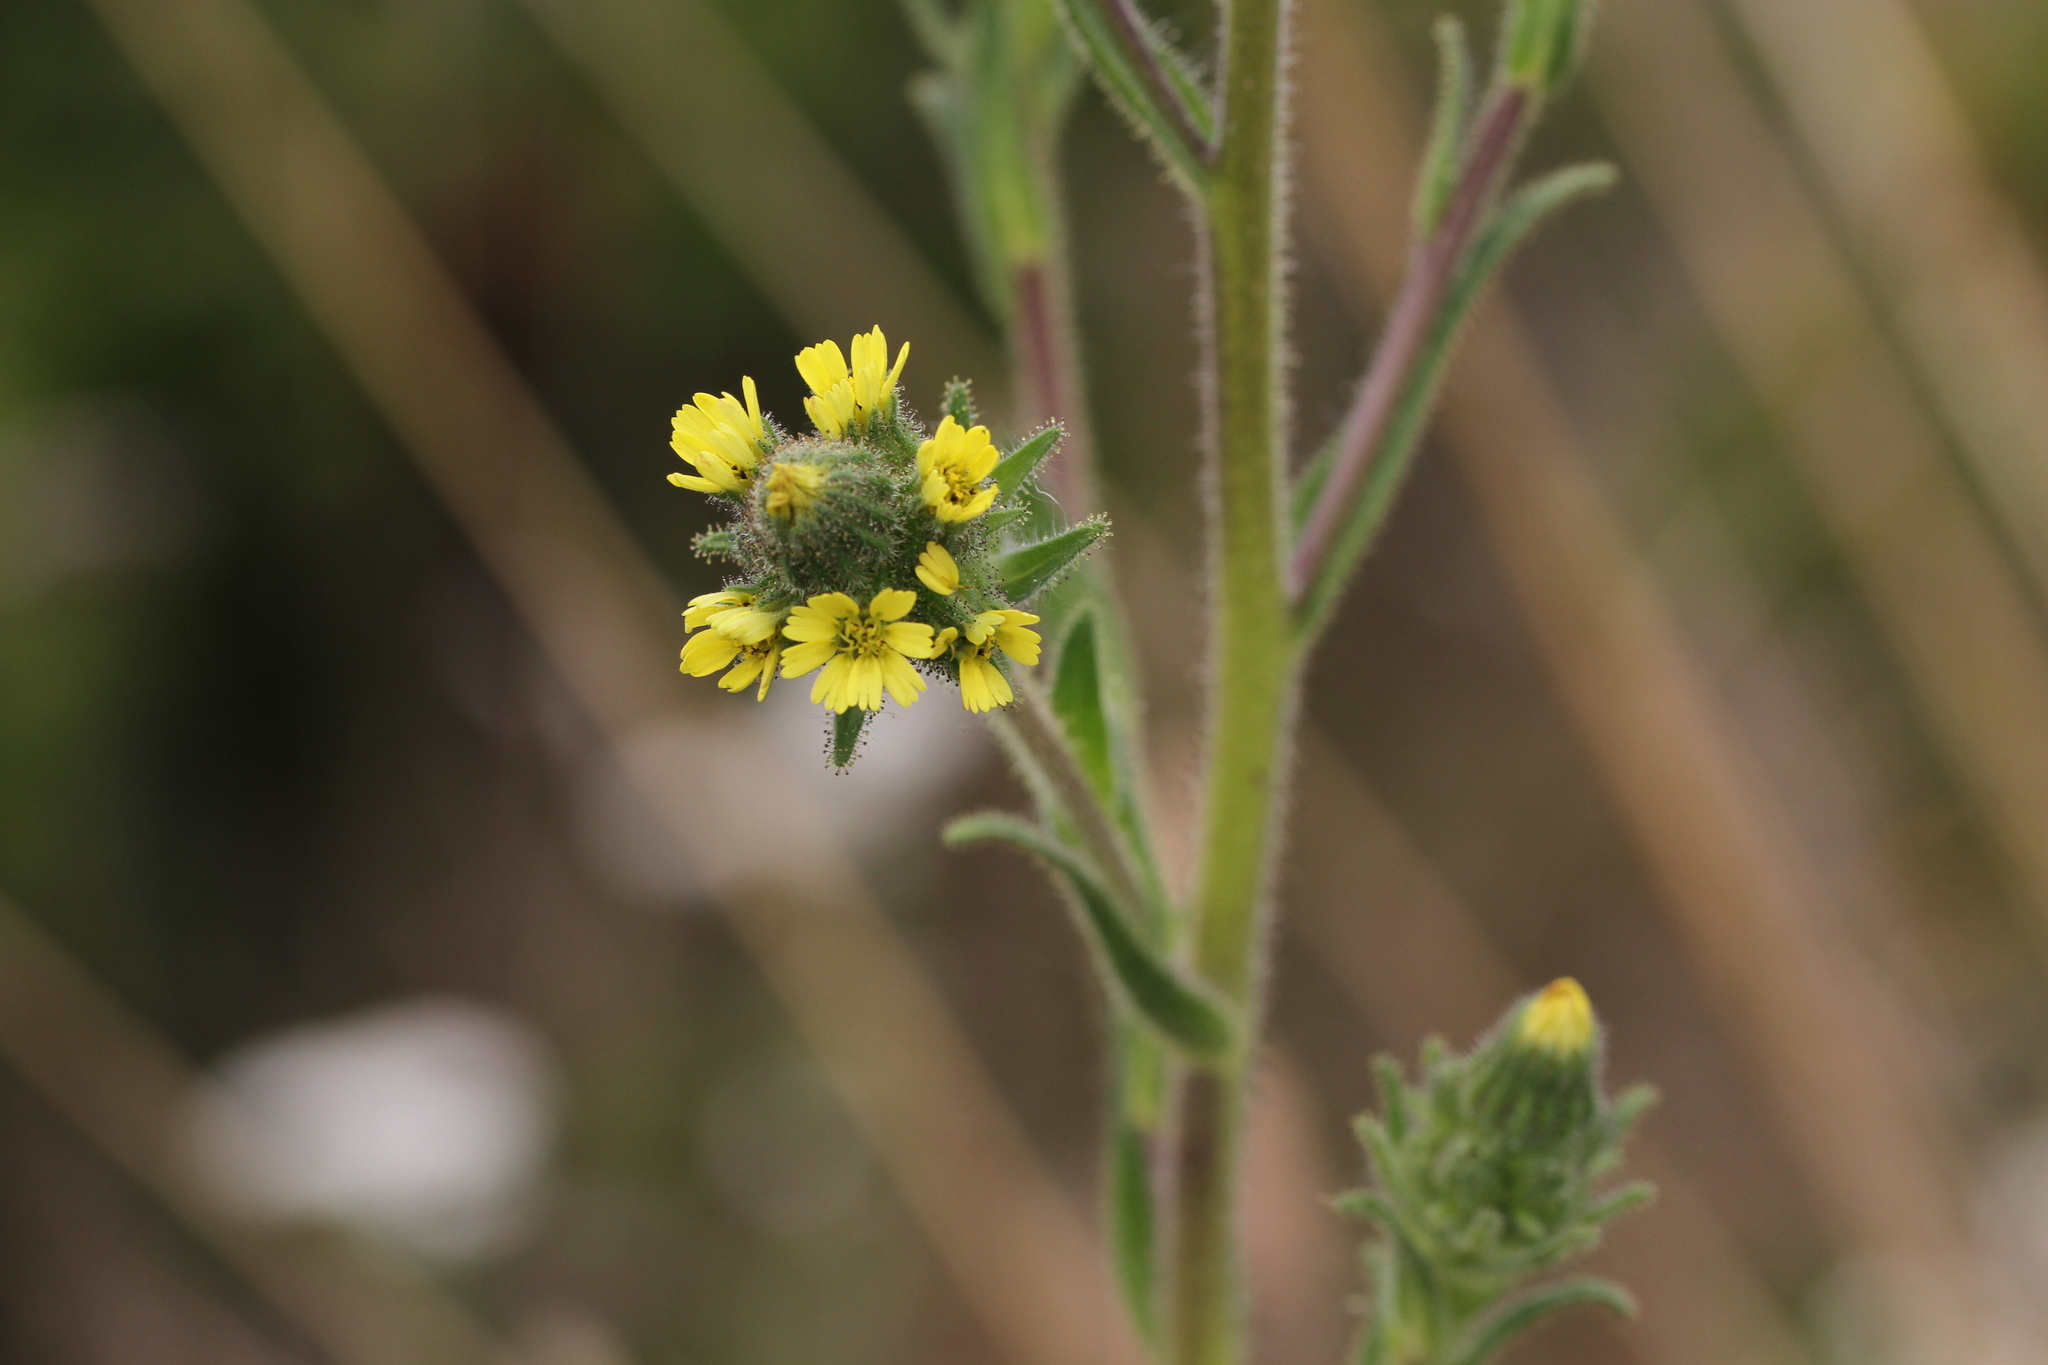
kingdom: Plantae
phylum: Tracheophyta
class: Magnoliopsida
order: Asterales
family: Asteraceae
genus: Madia
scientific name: Madia sativa
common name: Coast tarweed
